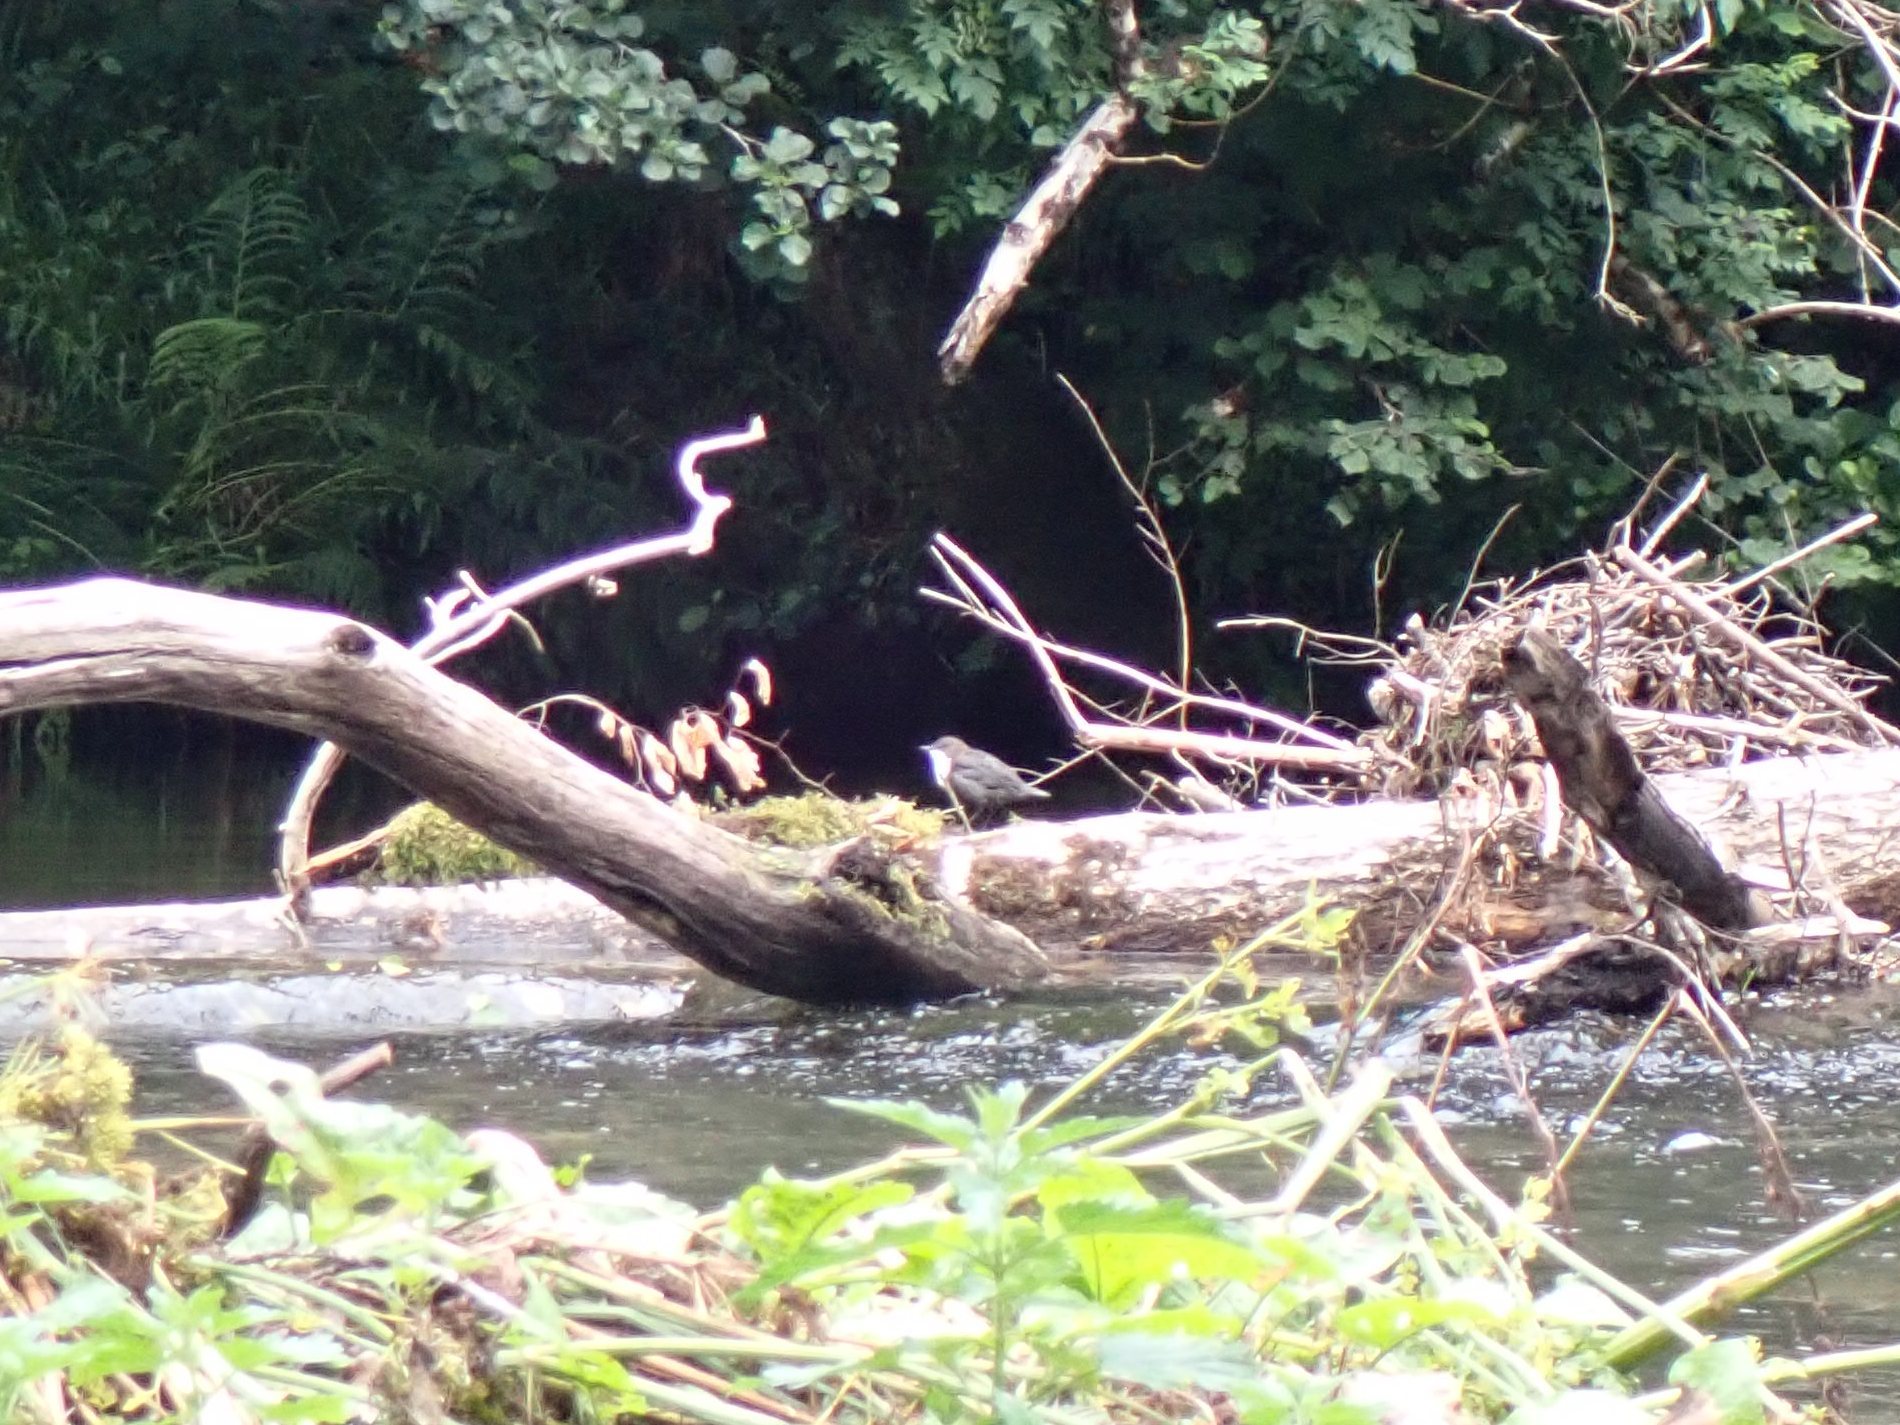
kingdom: Animalia
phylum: Chordata
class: Aves
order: Passeriformes
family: Cinclidae
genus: Cinclus
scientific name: Cinclus cinclus
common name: White-throated dipper
